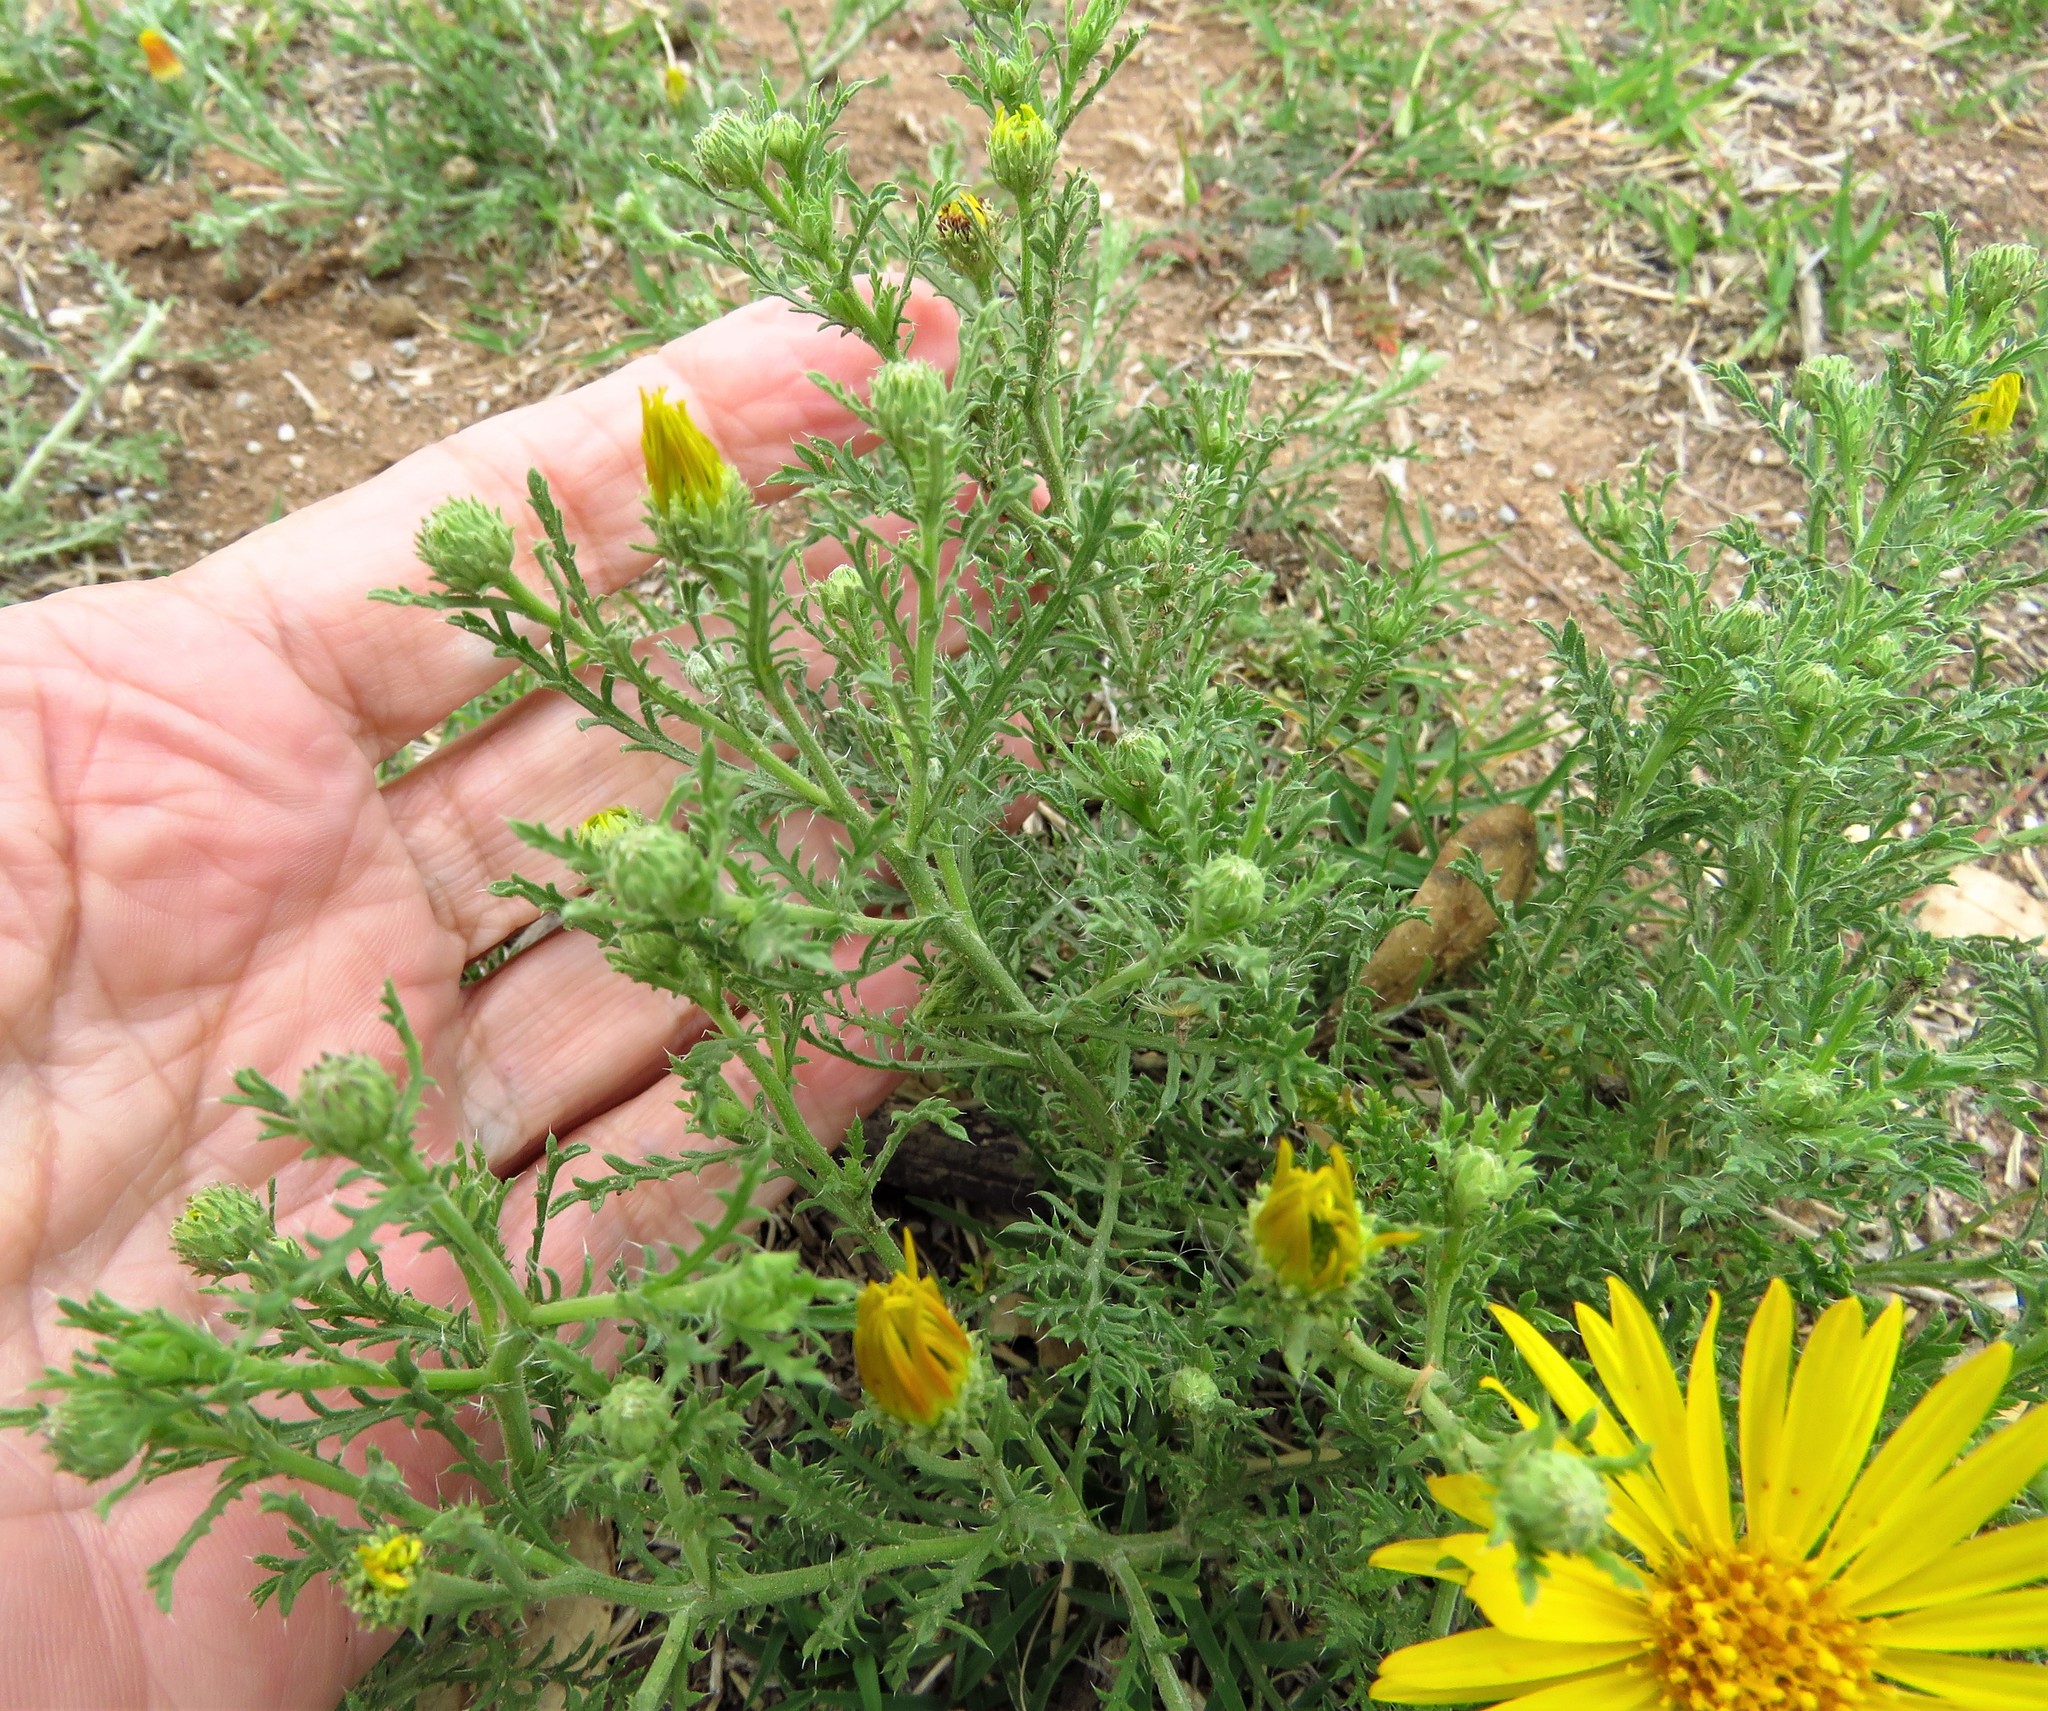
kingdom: Plantae
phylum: Tracheophyta
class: Magnoliopsida
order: Asterales
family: Asteraceae
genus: Xanthisma
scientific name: Xanthisma spinulosum
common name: Spiny goldenweed
